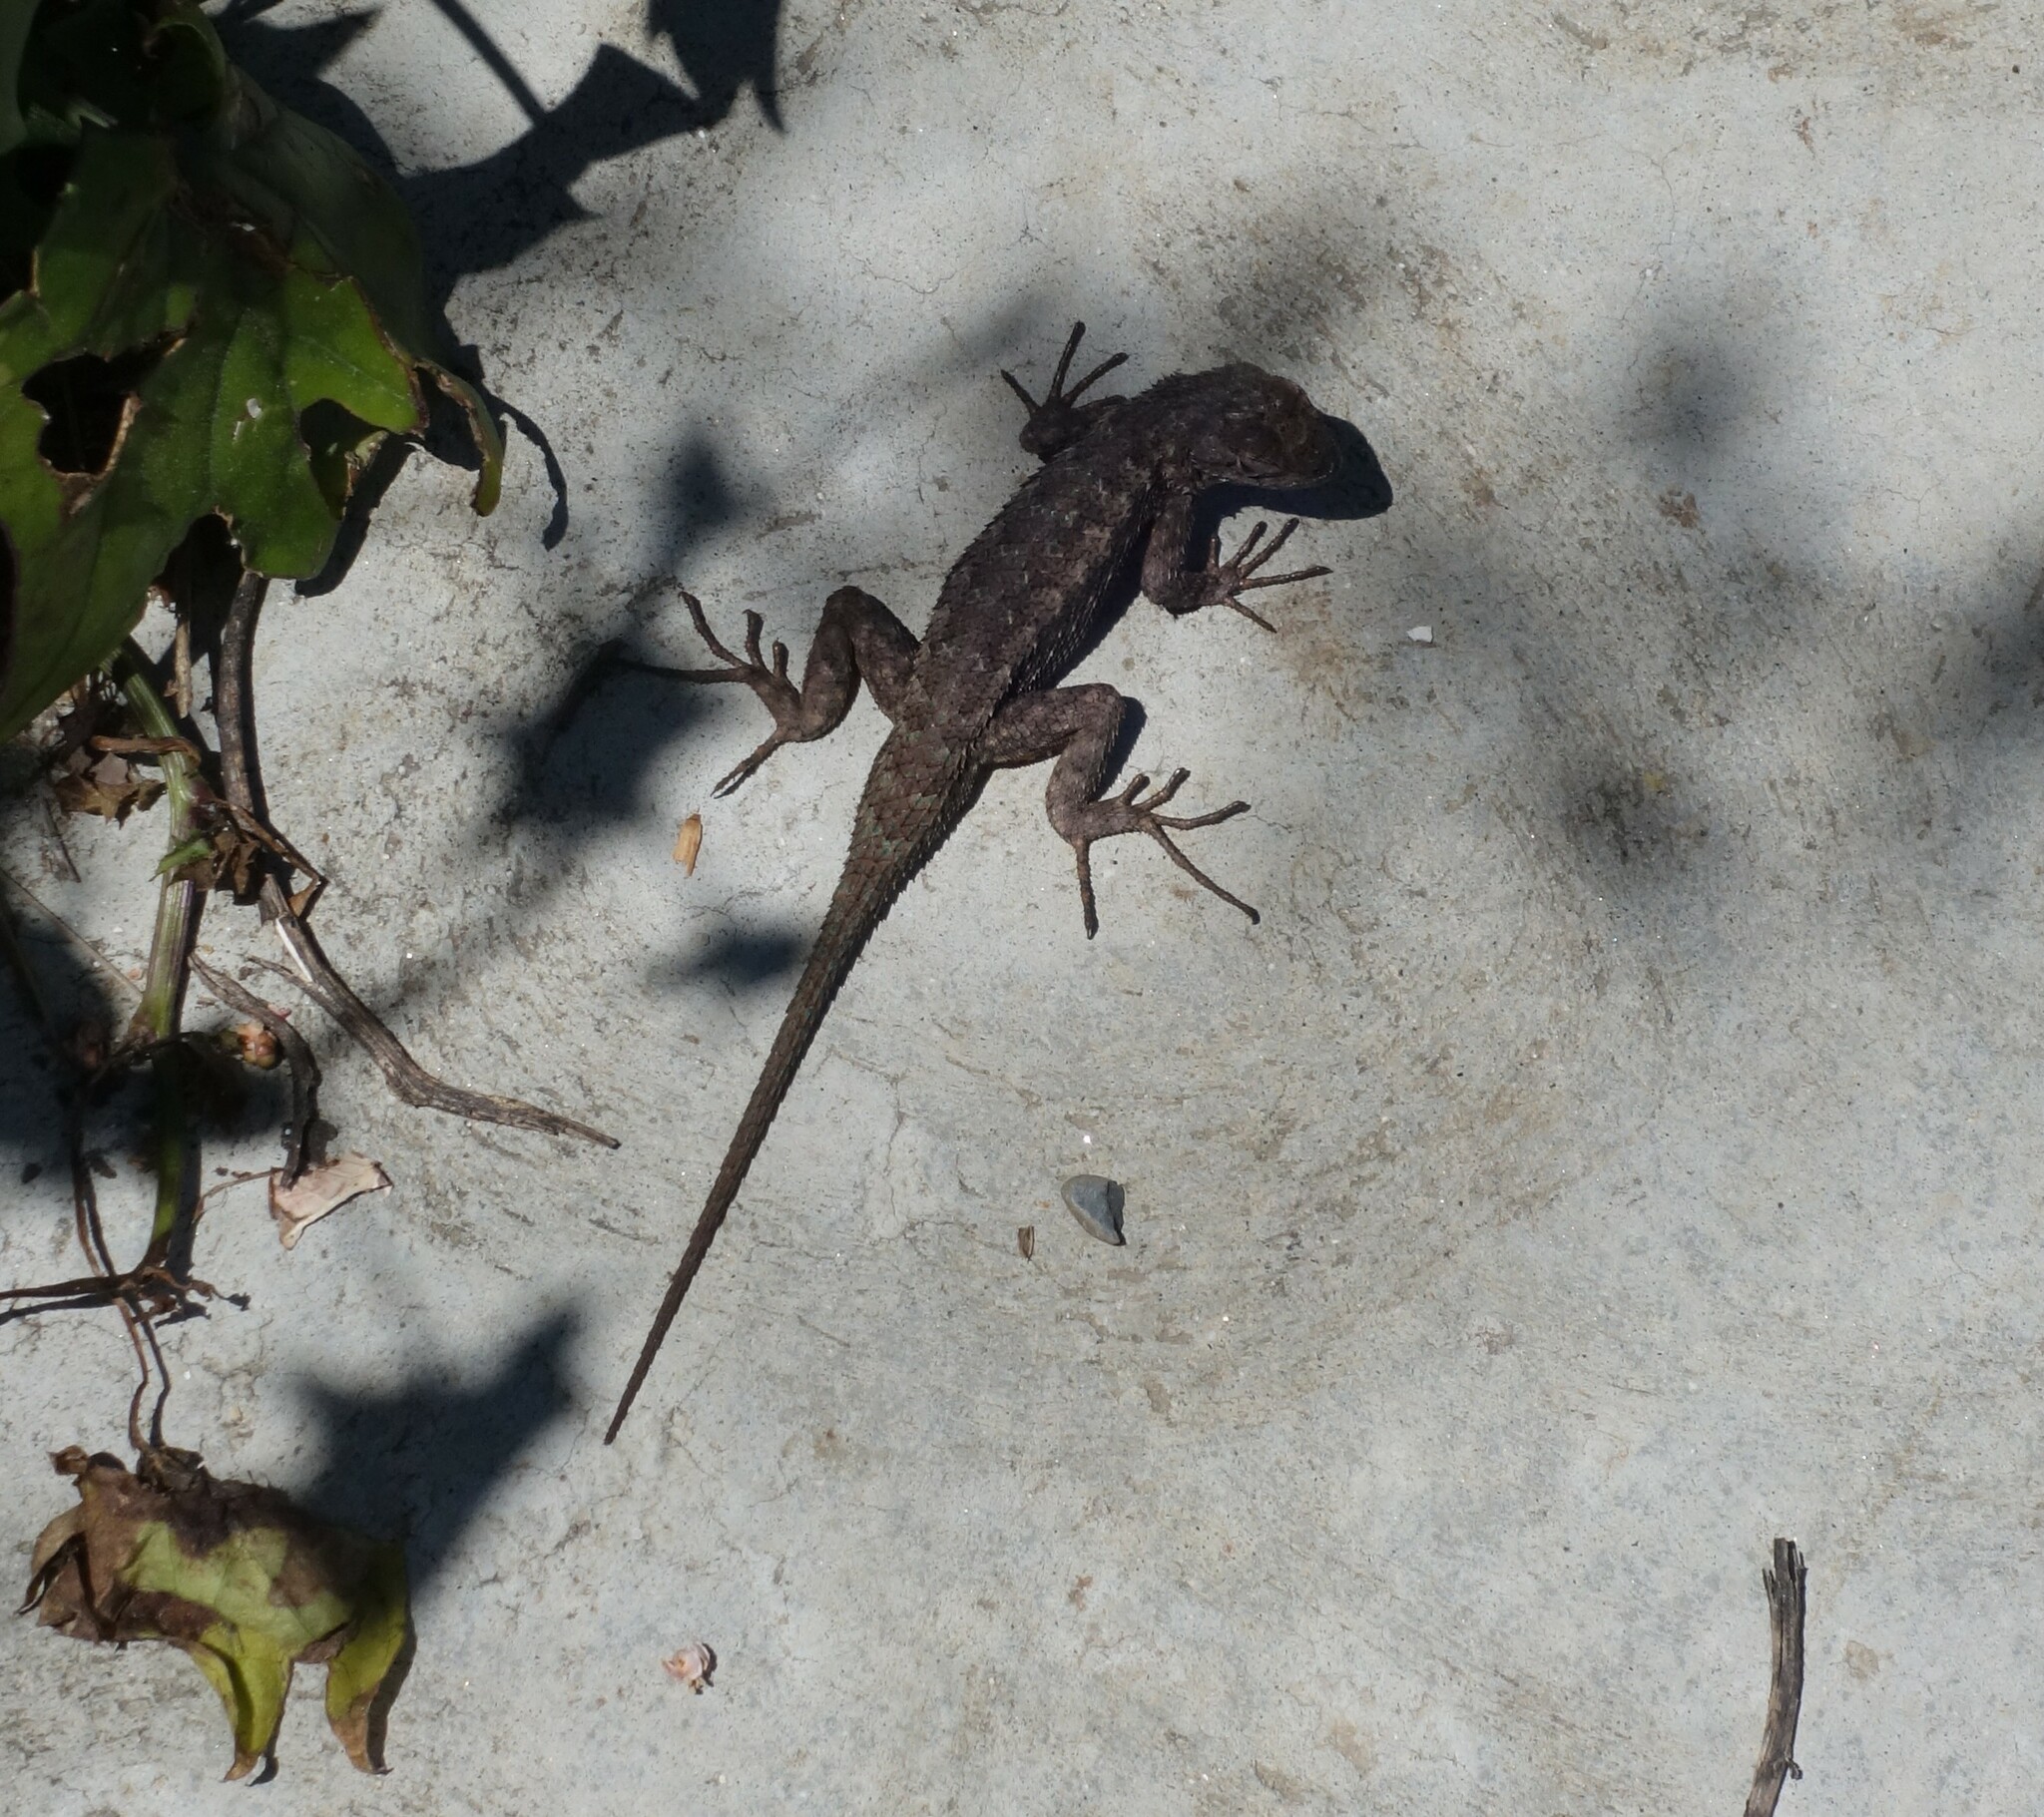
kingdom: Animalia
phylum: Chordata
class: Squamata
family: Phrynosomatidae
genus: Sceloporus
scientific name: Sceloporus occidentalis
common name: Western fence lizard
